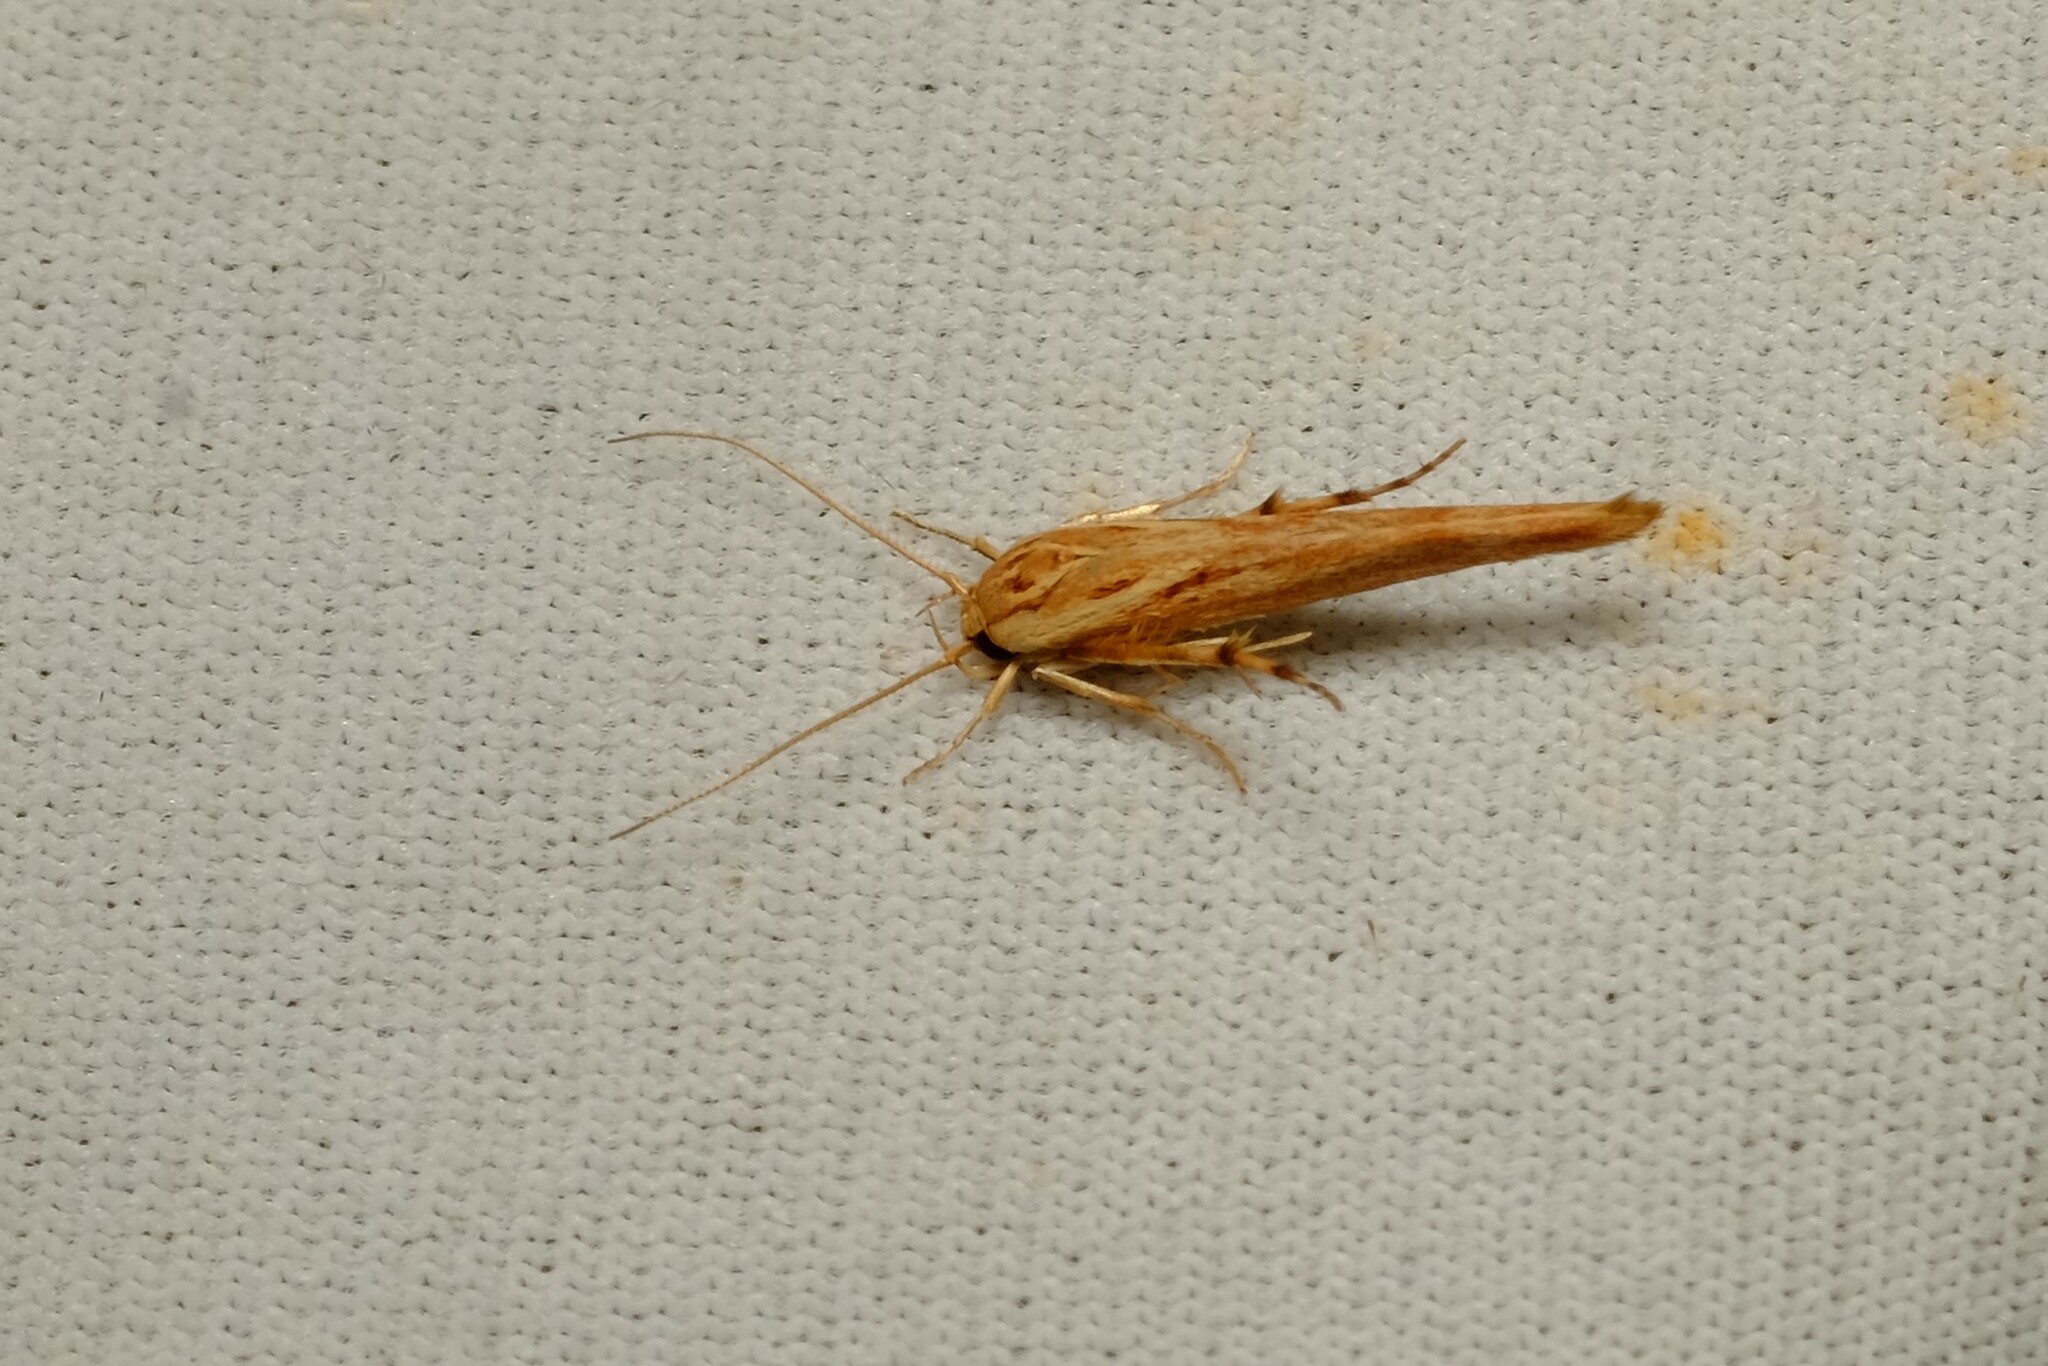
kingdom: Animalia
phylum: Arthropoda
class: Insecta
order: Lepidoptera
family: Stathmopodidae
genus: Stathmopoda
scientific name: Stathmopoda cephalaea
